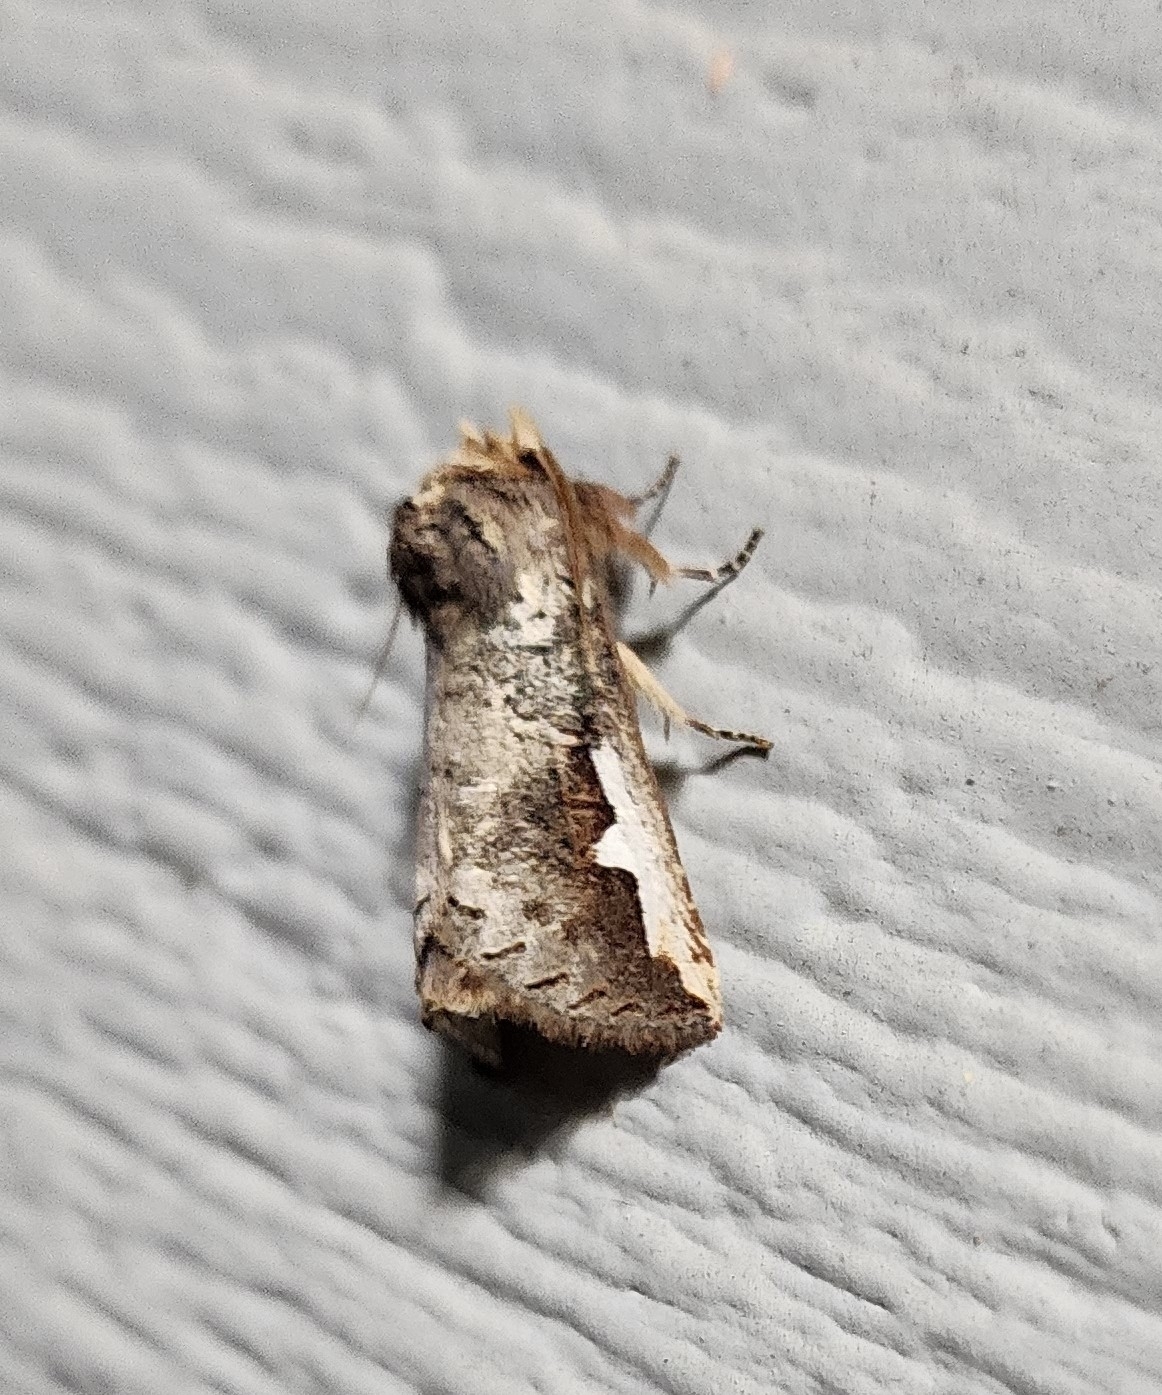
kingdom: Animalia
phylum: Arthropoda
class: Insecta
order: Lepidoptera
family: Notodontidae
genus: Symmerista
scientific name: Symmerista albifrons
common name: White-headed prominent
